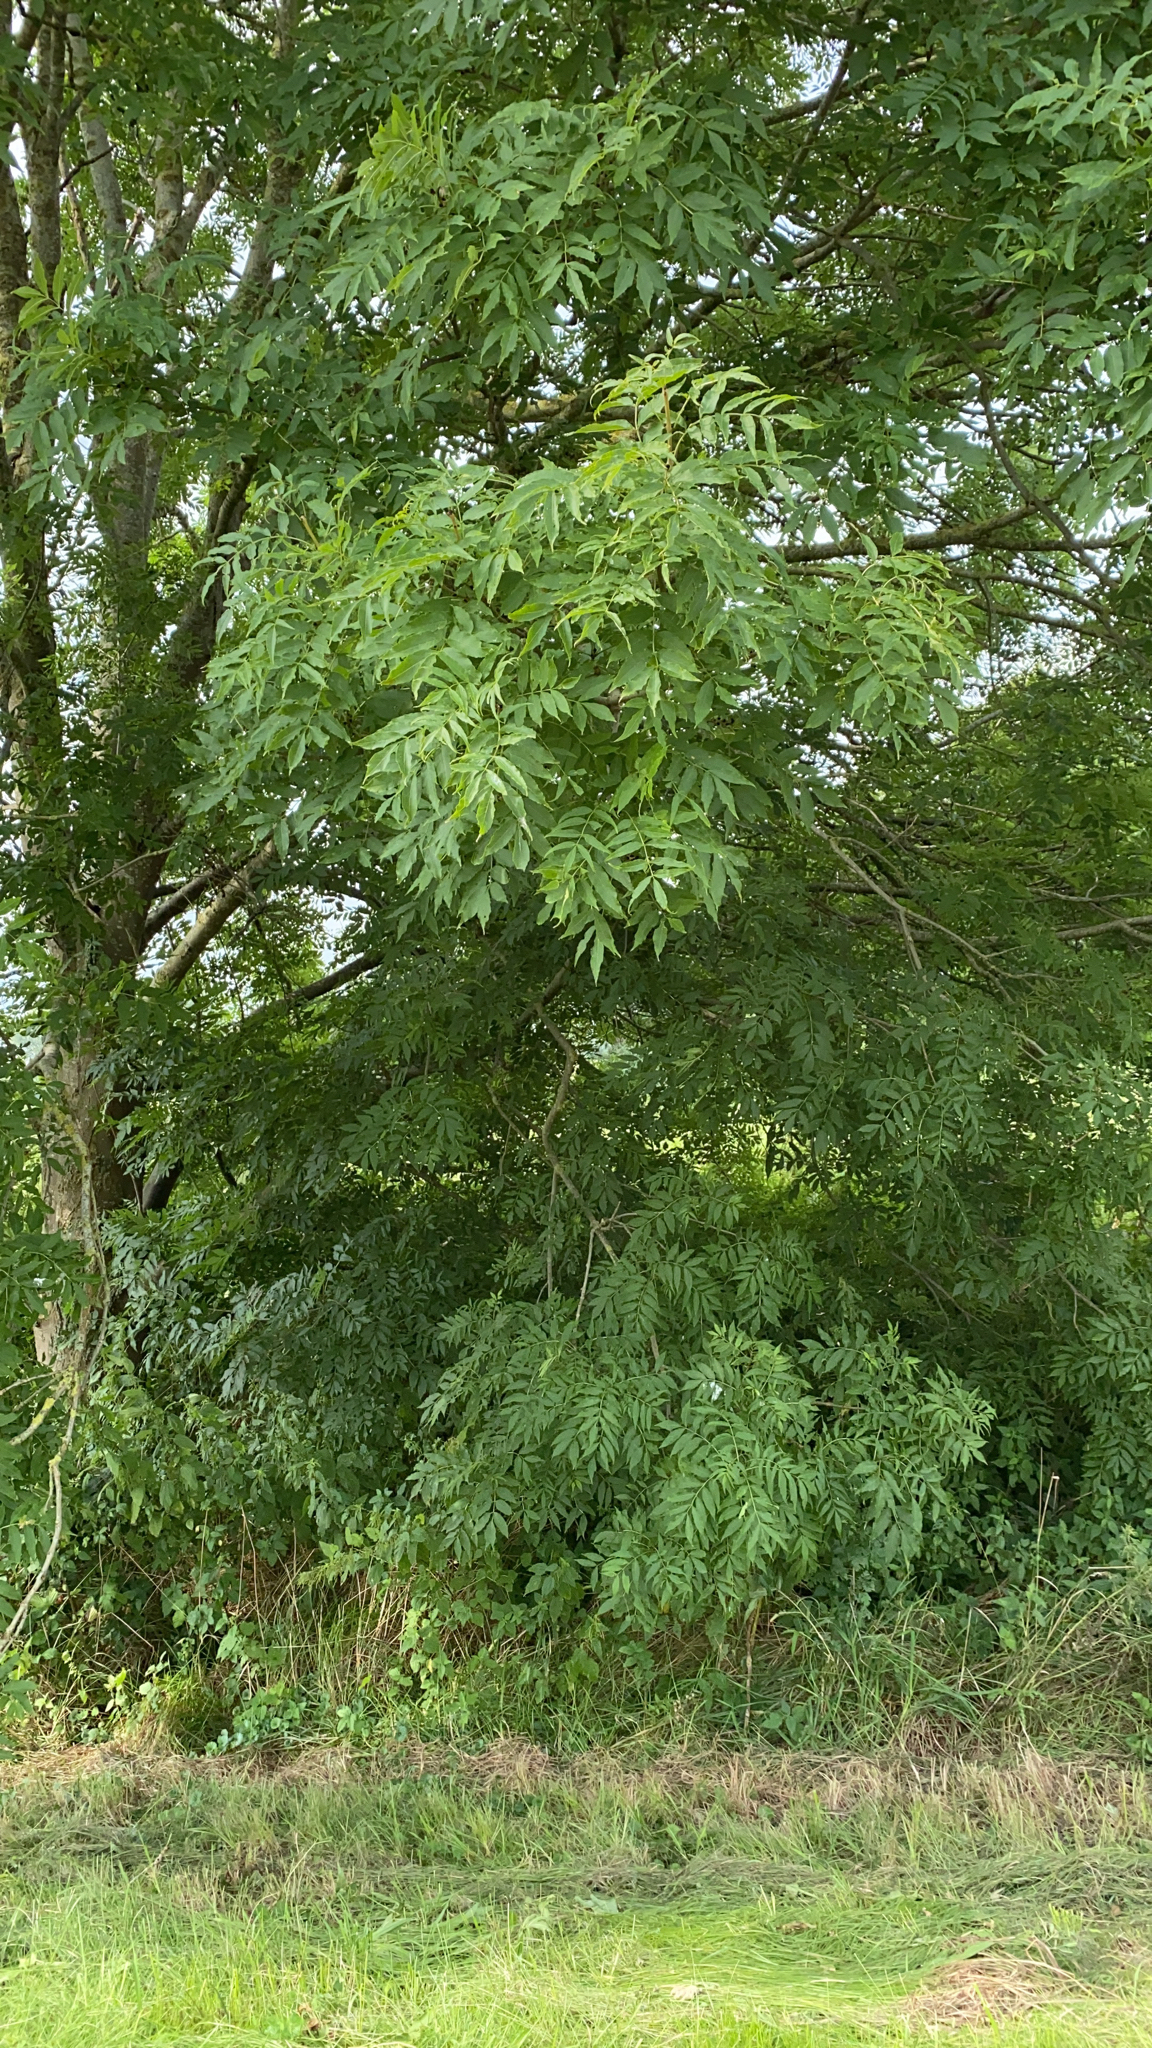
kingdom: Plantae
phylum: Tracheophyta
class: Magnoliopsida
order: Lamiales
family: Oleaceae
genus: Fraxinus
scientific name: Fraxinus excelsior
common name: European ash
